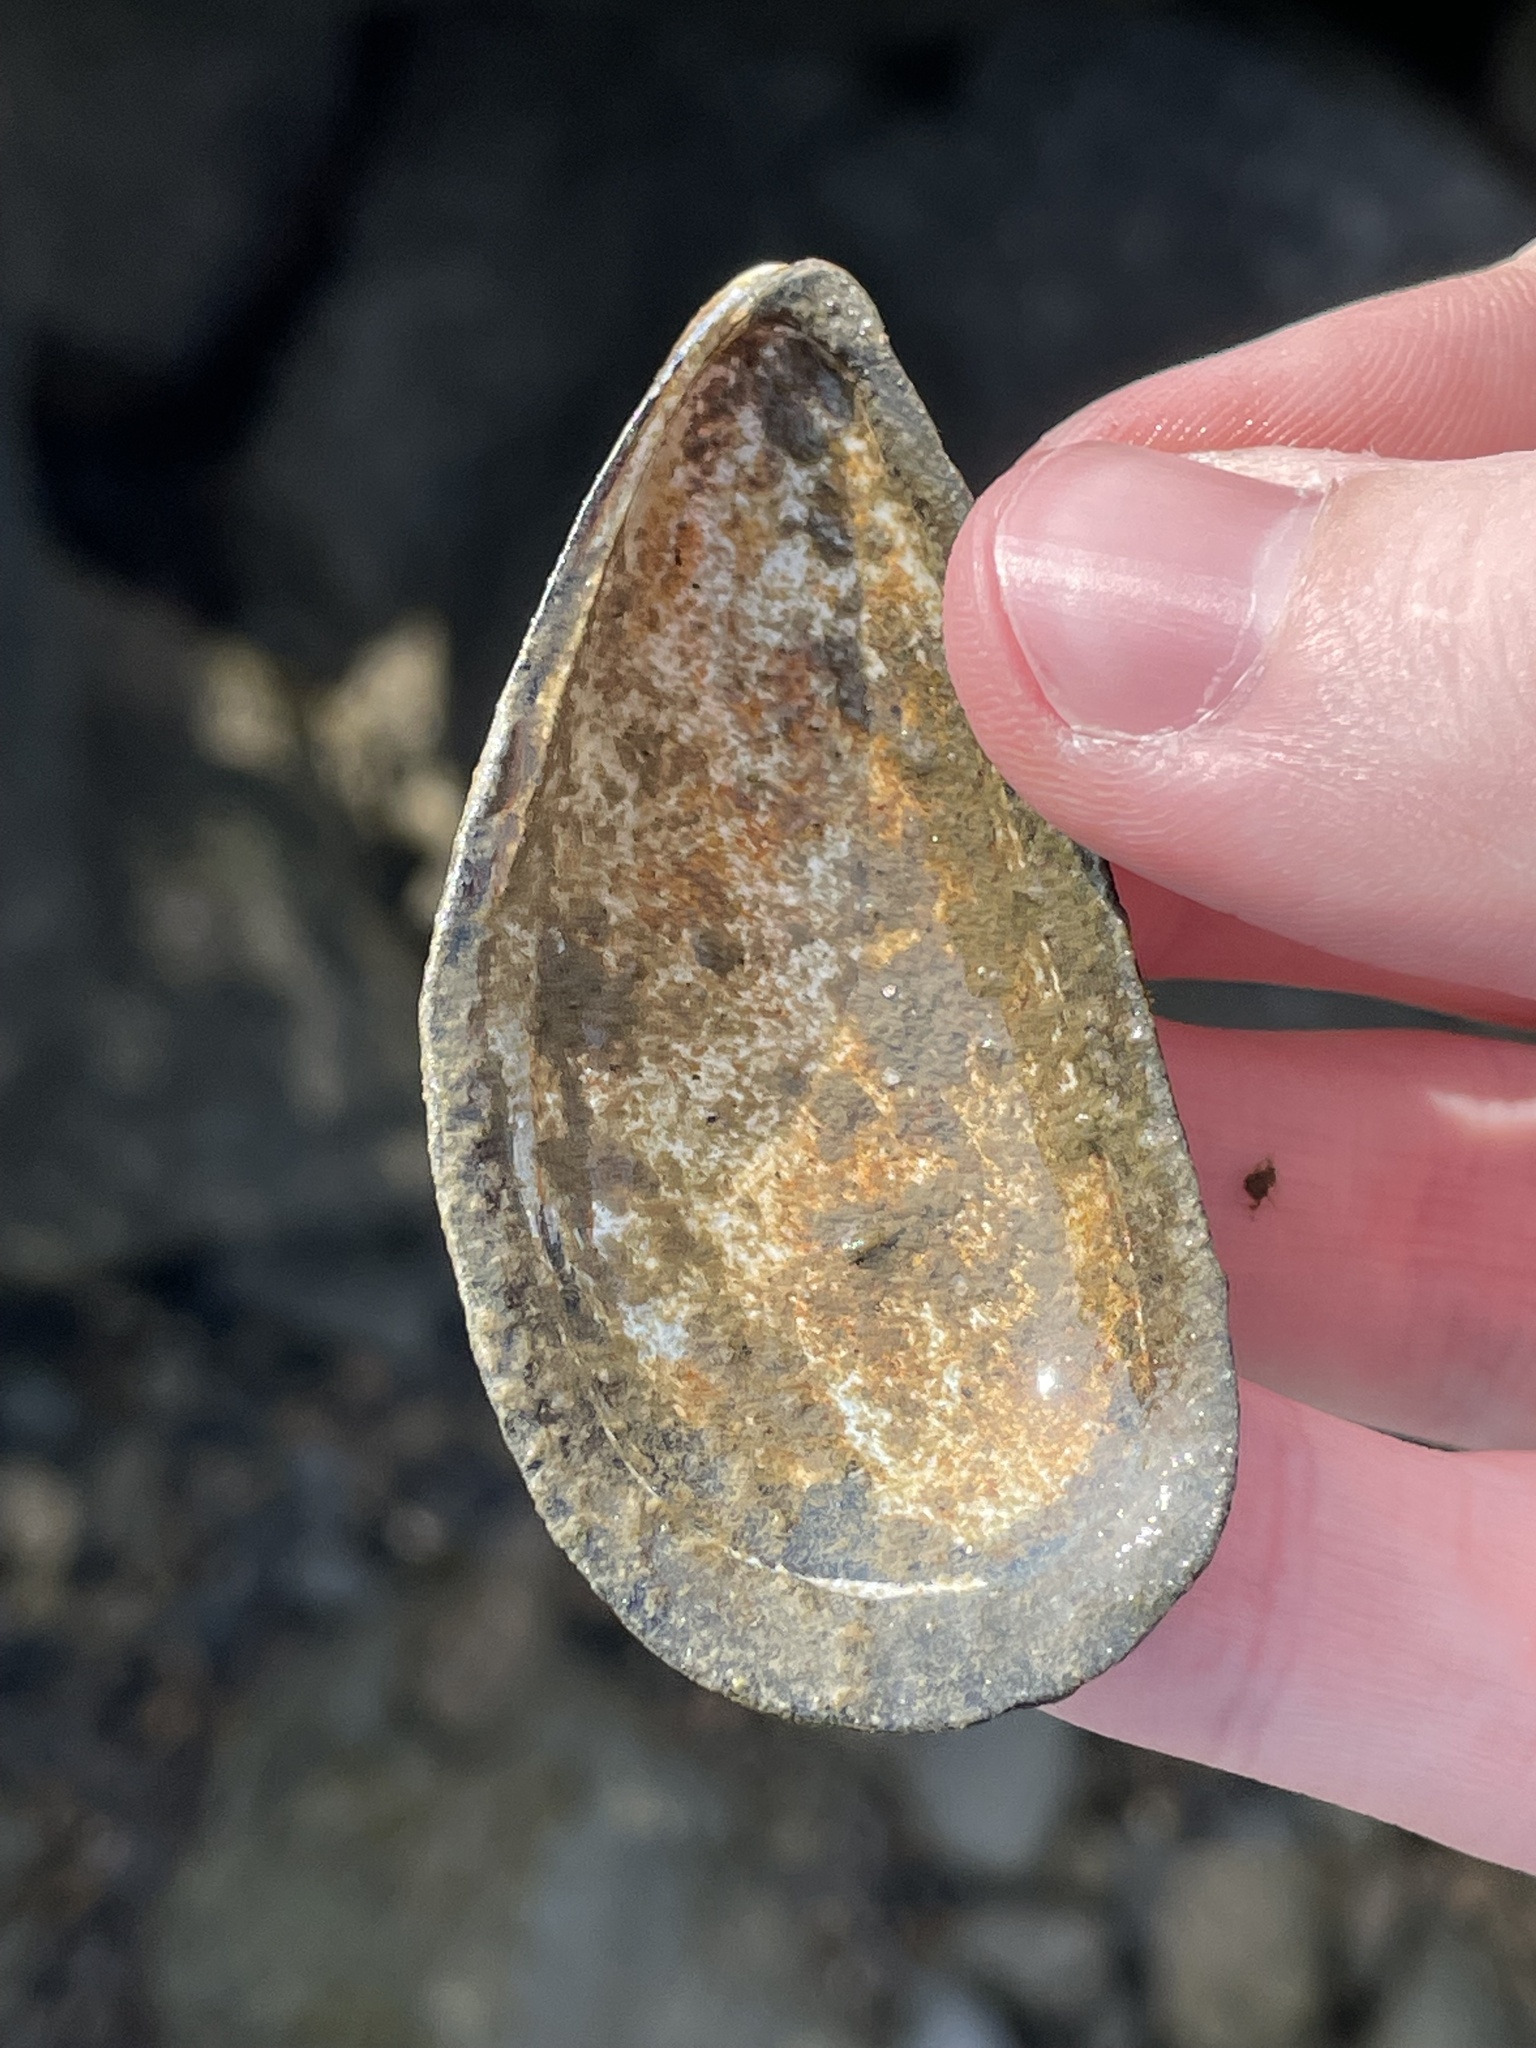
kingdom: Animalia
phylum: Mollusca
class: Bivalvia
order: Mytilida
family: Mytilidae
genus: Mytilus
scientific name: Mytilus edulis
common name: Blue mussel
